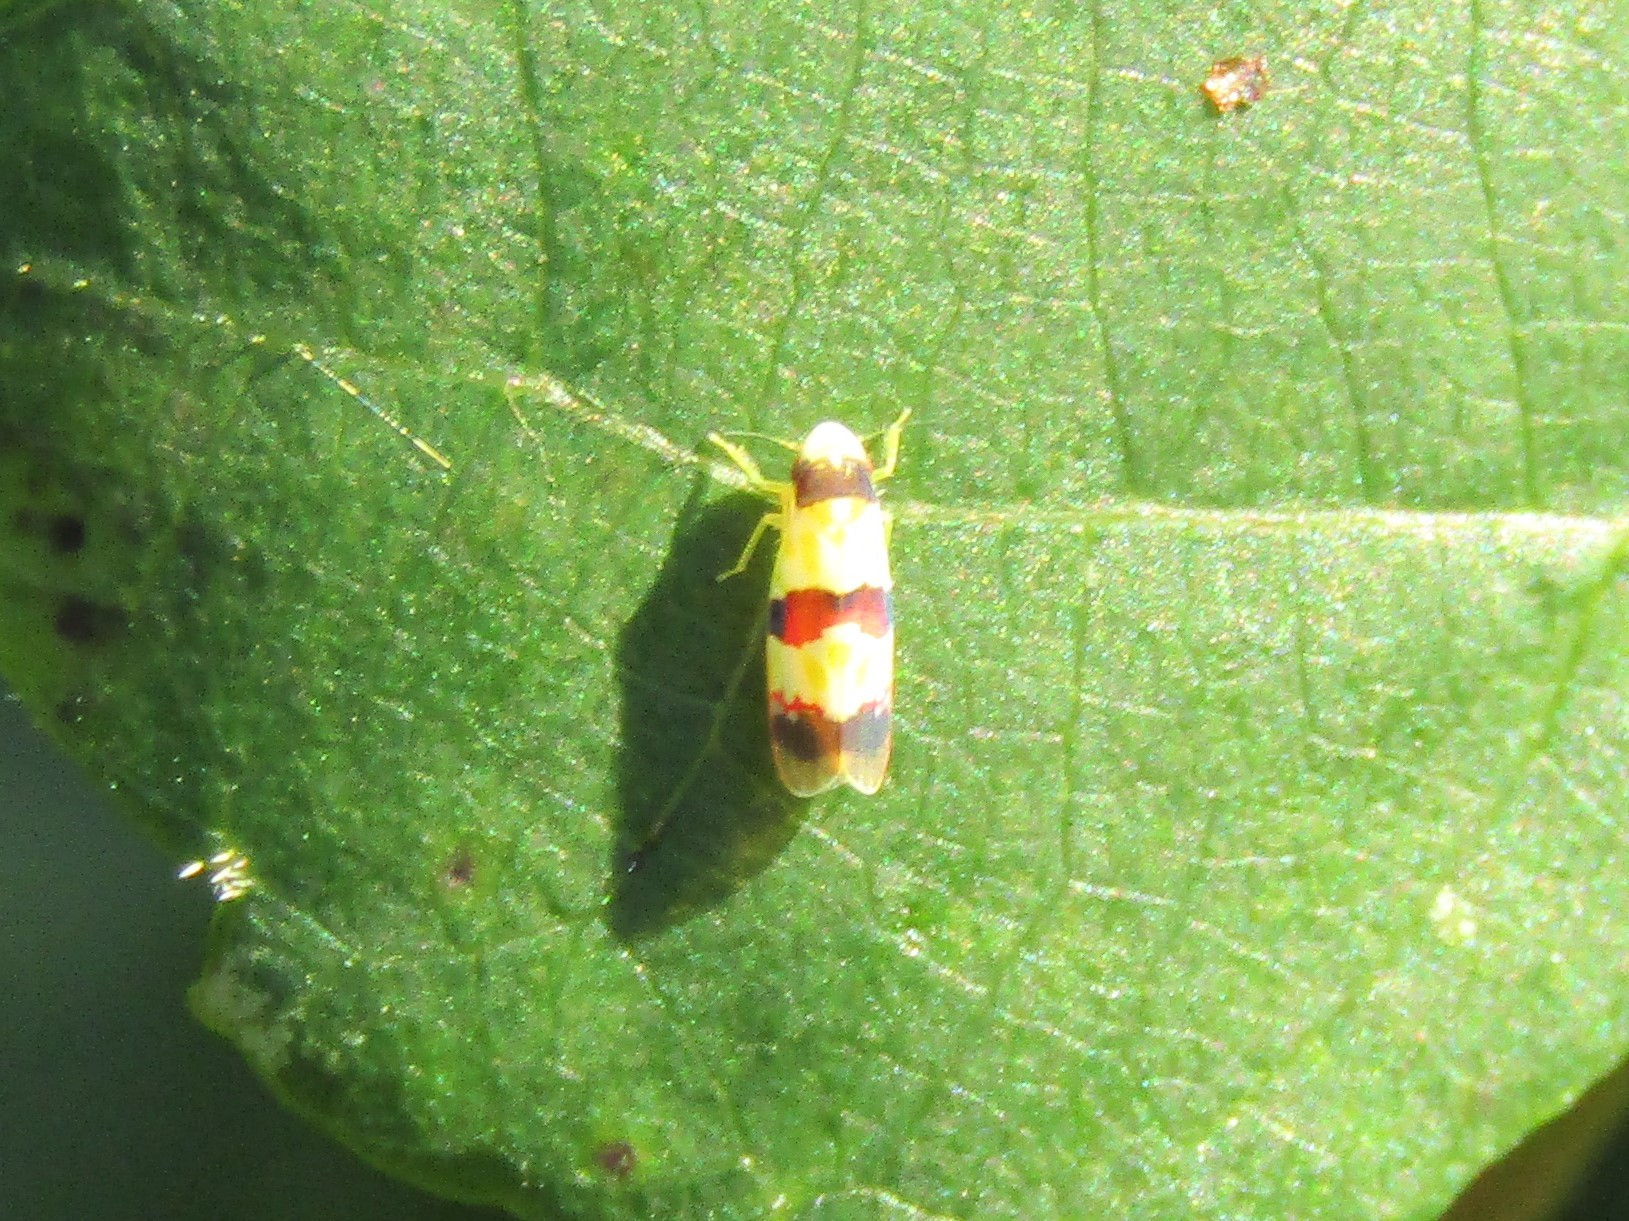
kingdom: Animalia
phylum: Arthropoda
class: Insecta
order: Hemiptera
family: Cicadellidae
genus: Erythroneura
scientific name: Erythroneura integra
